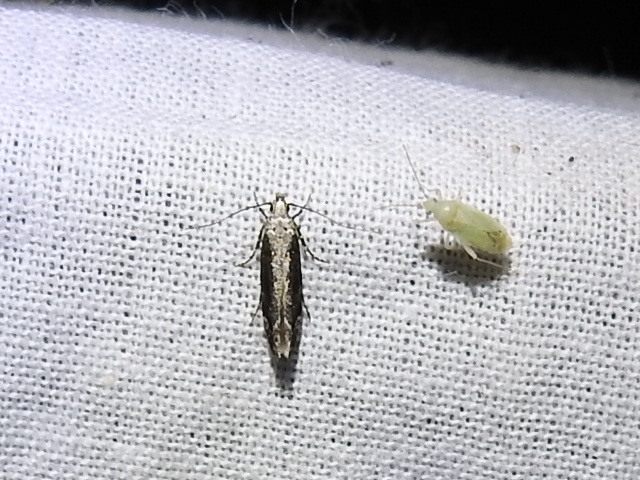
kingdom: Animalia
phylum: Arthropoda
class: Insecta
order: Lepidoptera
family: Gelechiidae
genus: Coleotechnites
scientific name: Coleotechnites florae
